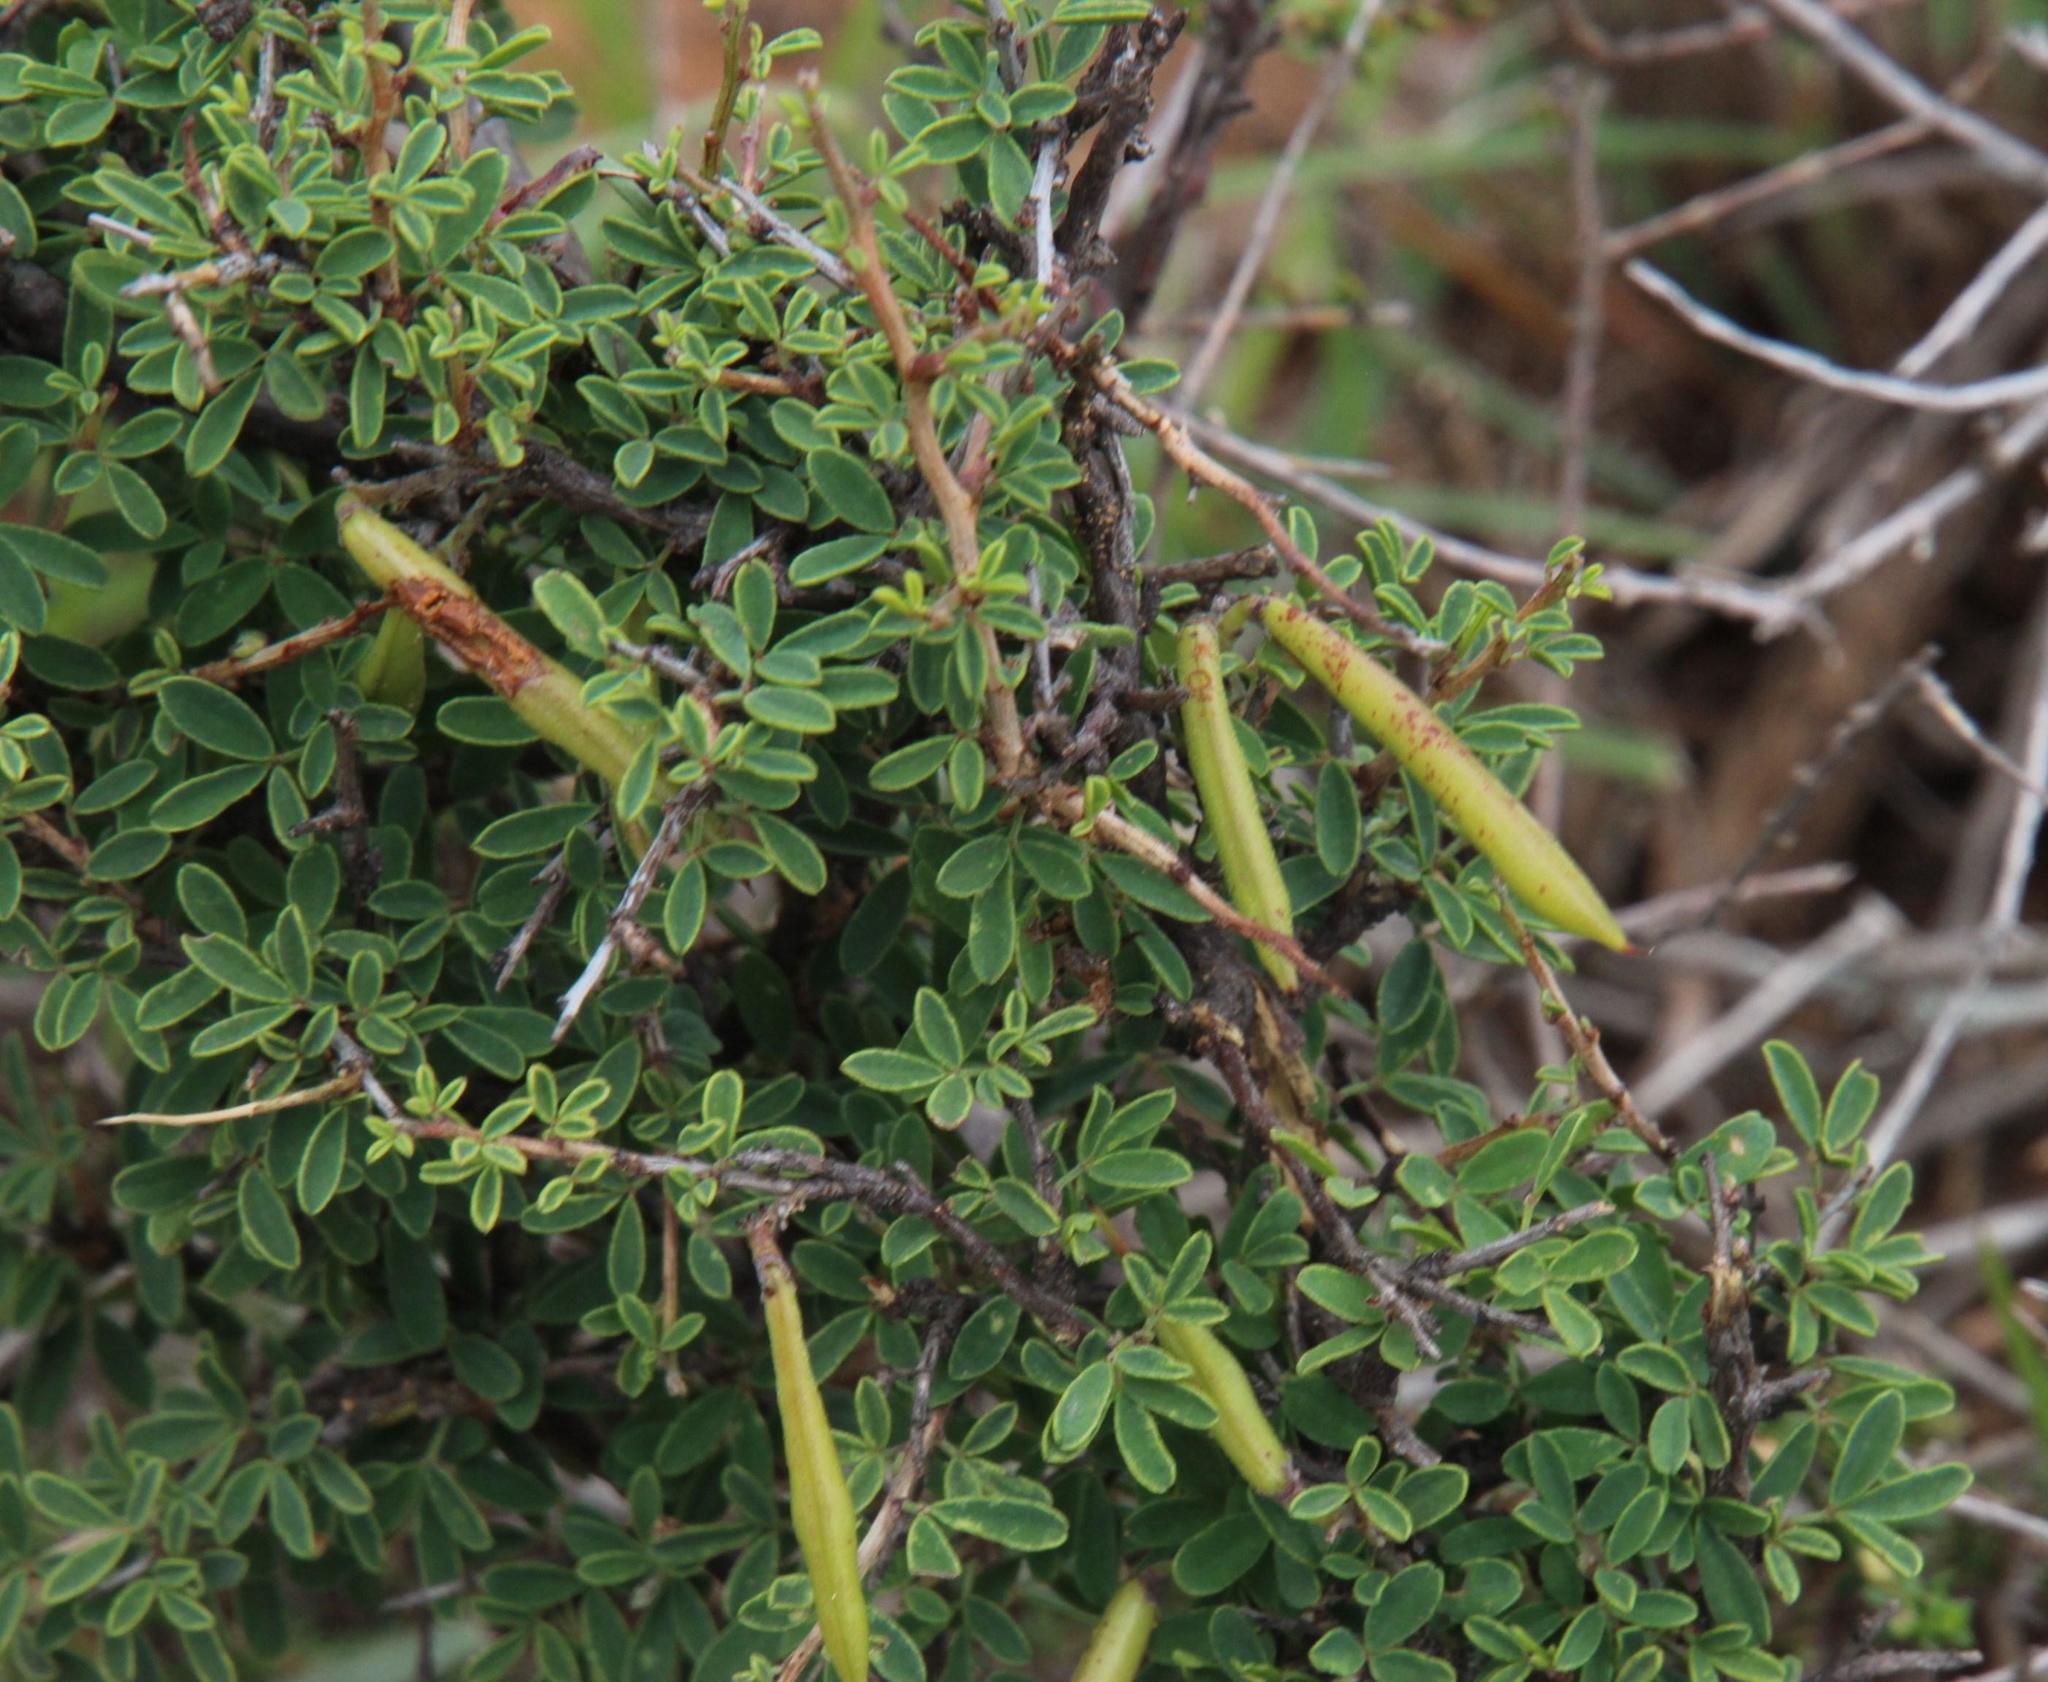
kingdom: Plantae
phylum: Tracheophyta
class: Magnoliopsida
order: Fabales
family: Fabaceae
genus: Indigofera
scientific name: Indigofera denudata
